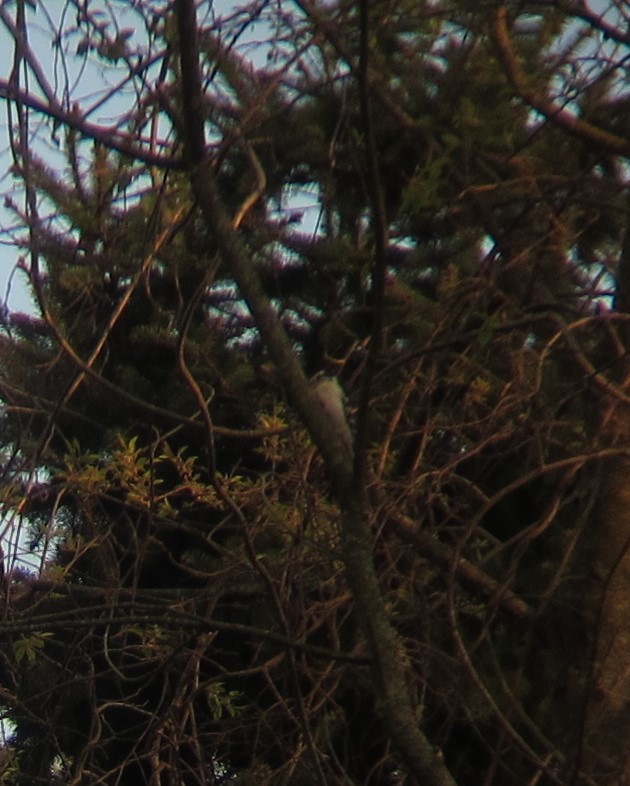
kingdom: Animalia
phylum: Chordata
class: Aves
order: Piciformes
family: Picidae
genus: Dryobates
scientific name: Dryobates
